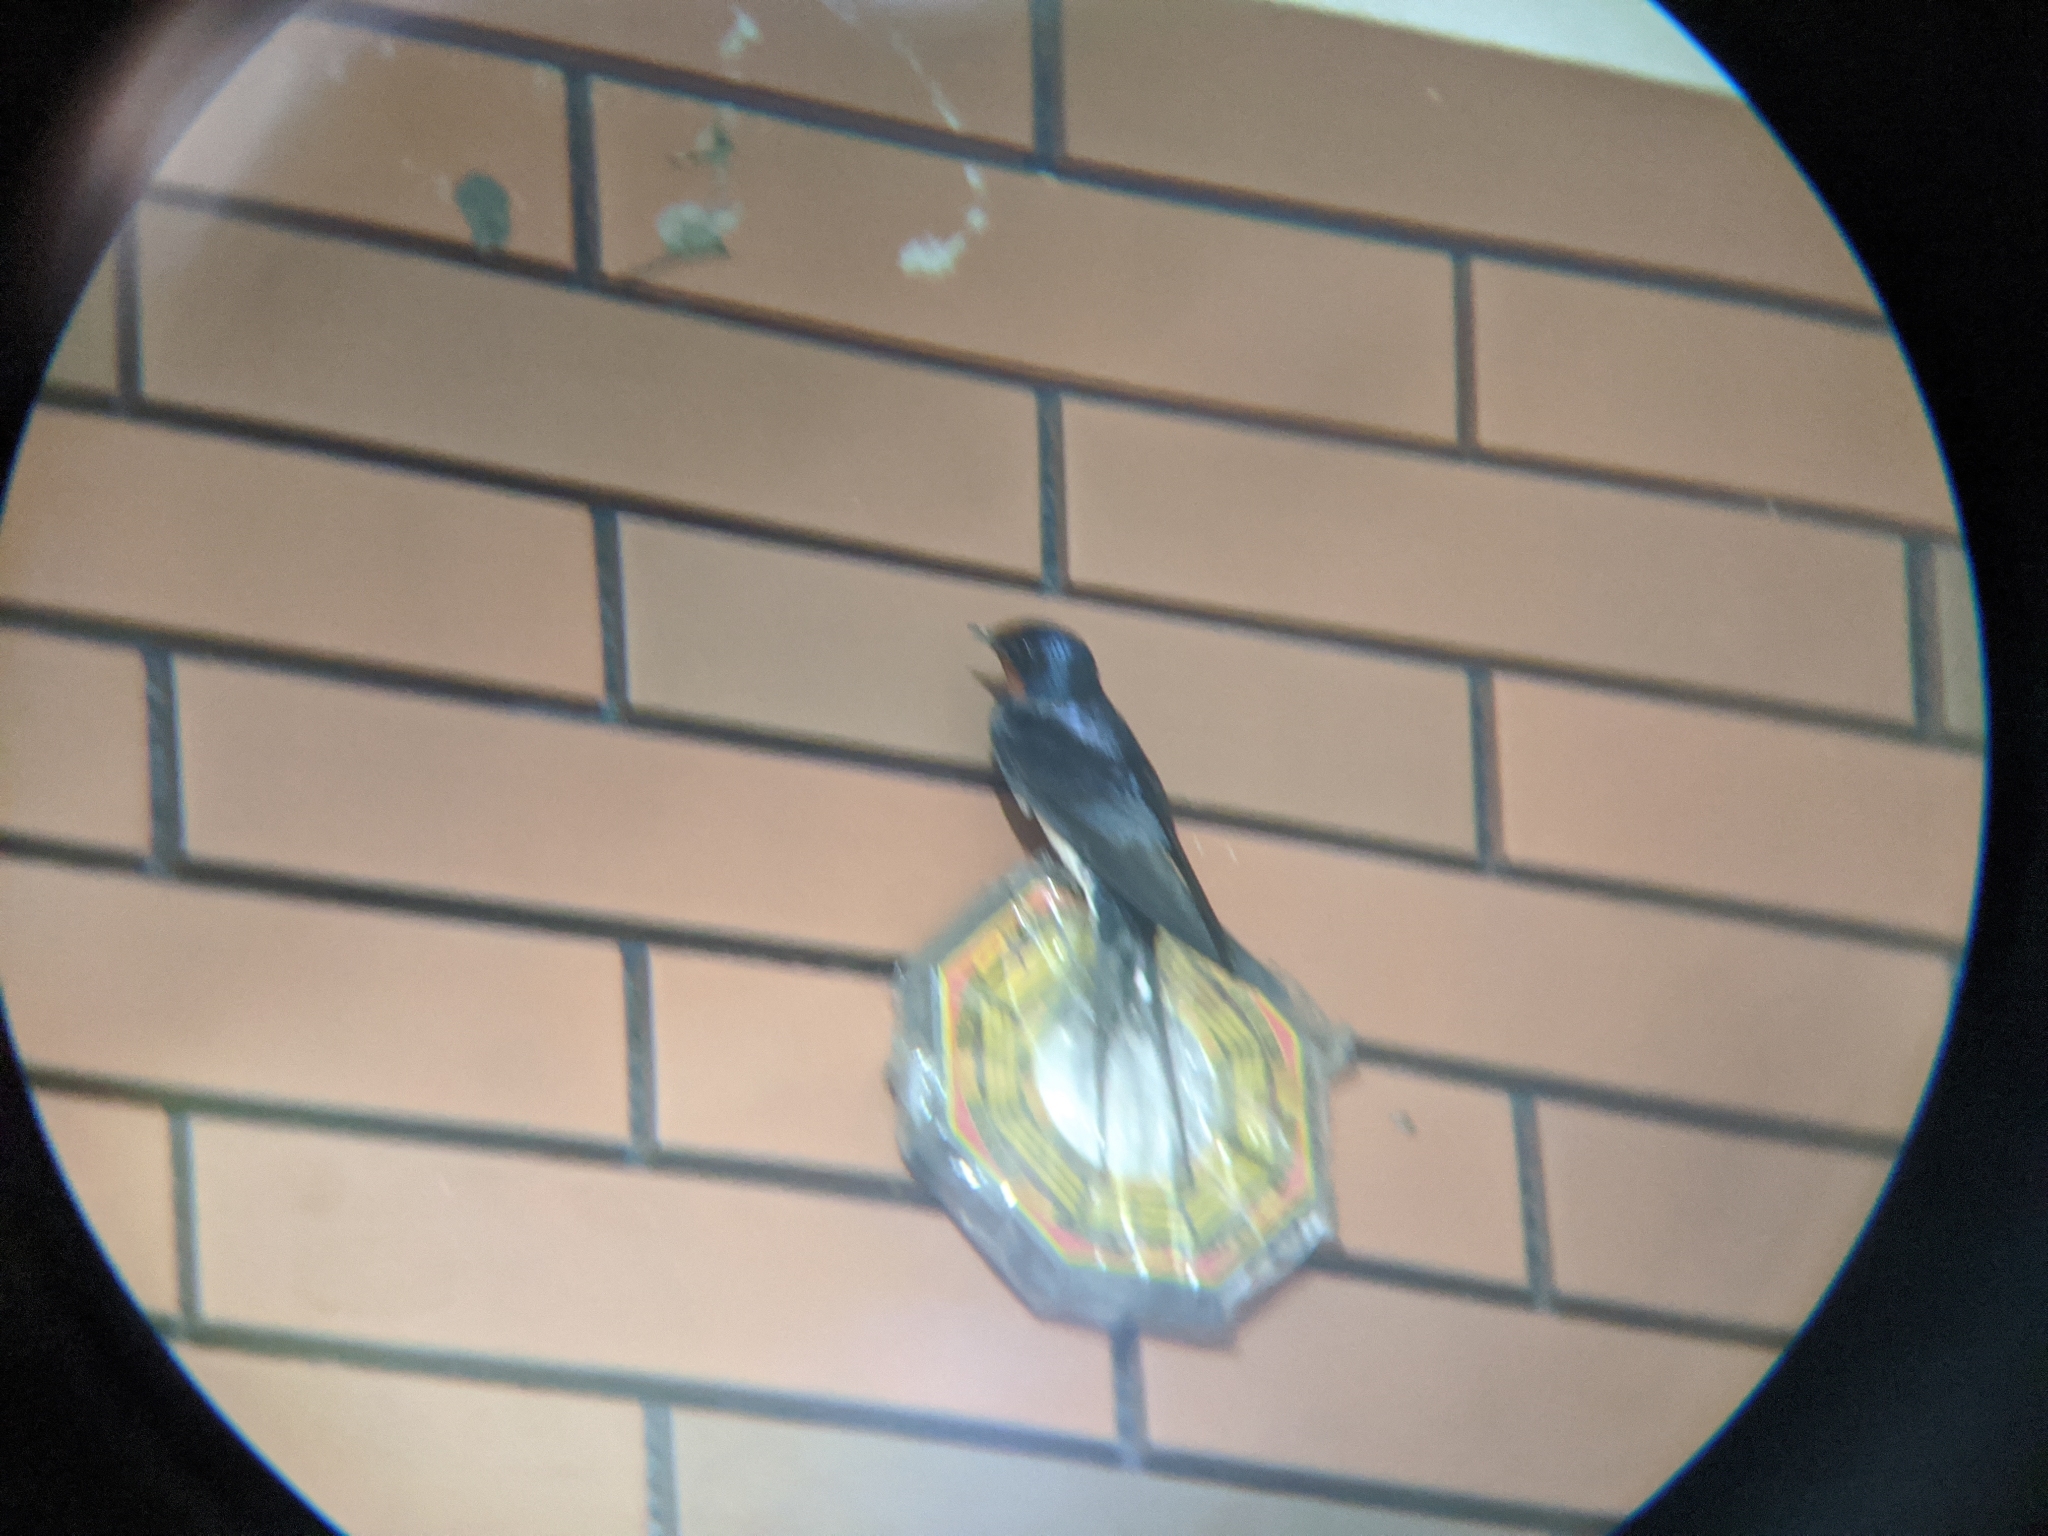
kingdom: Animalia
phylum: Chordata
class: Aves
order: Passeriformes
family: Hirundinidae
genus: Hirundo
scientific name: Hirundo rustica
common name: Barn swallow
